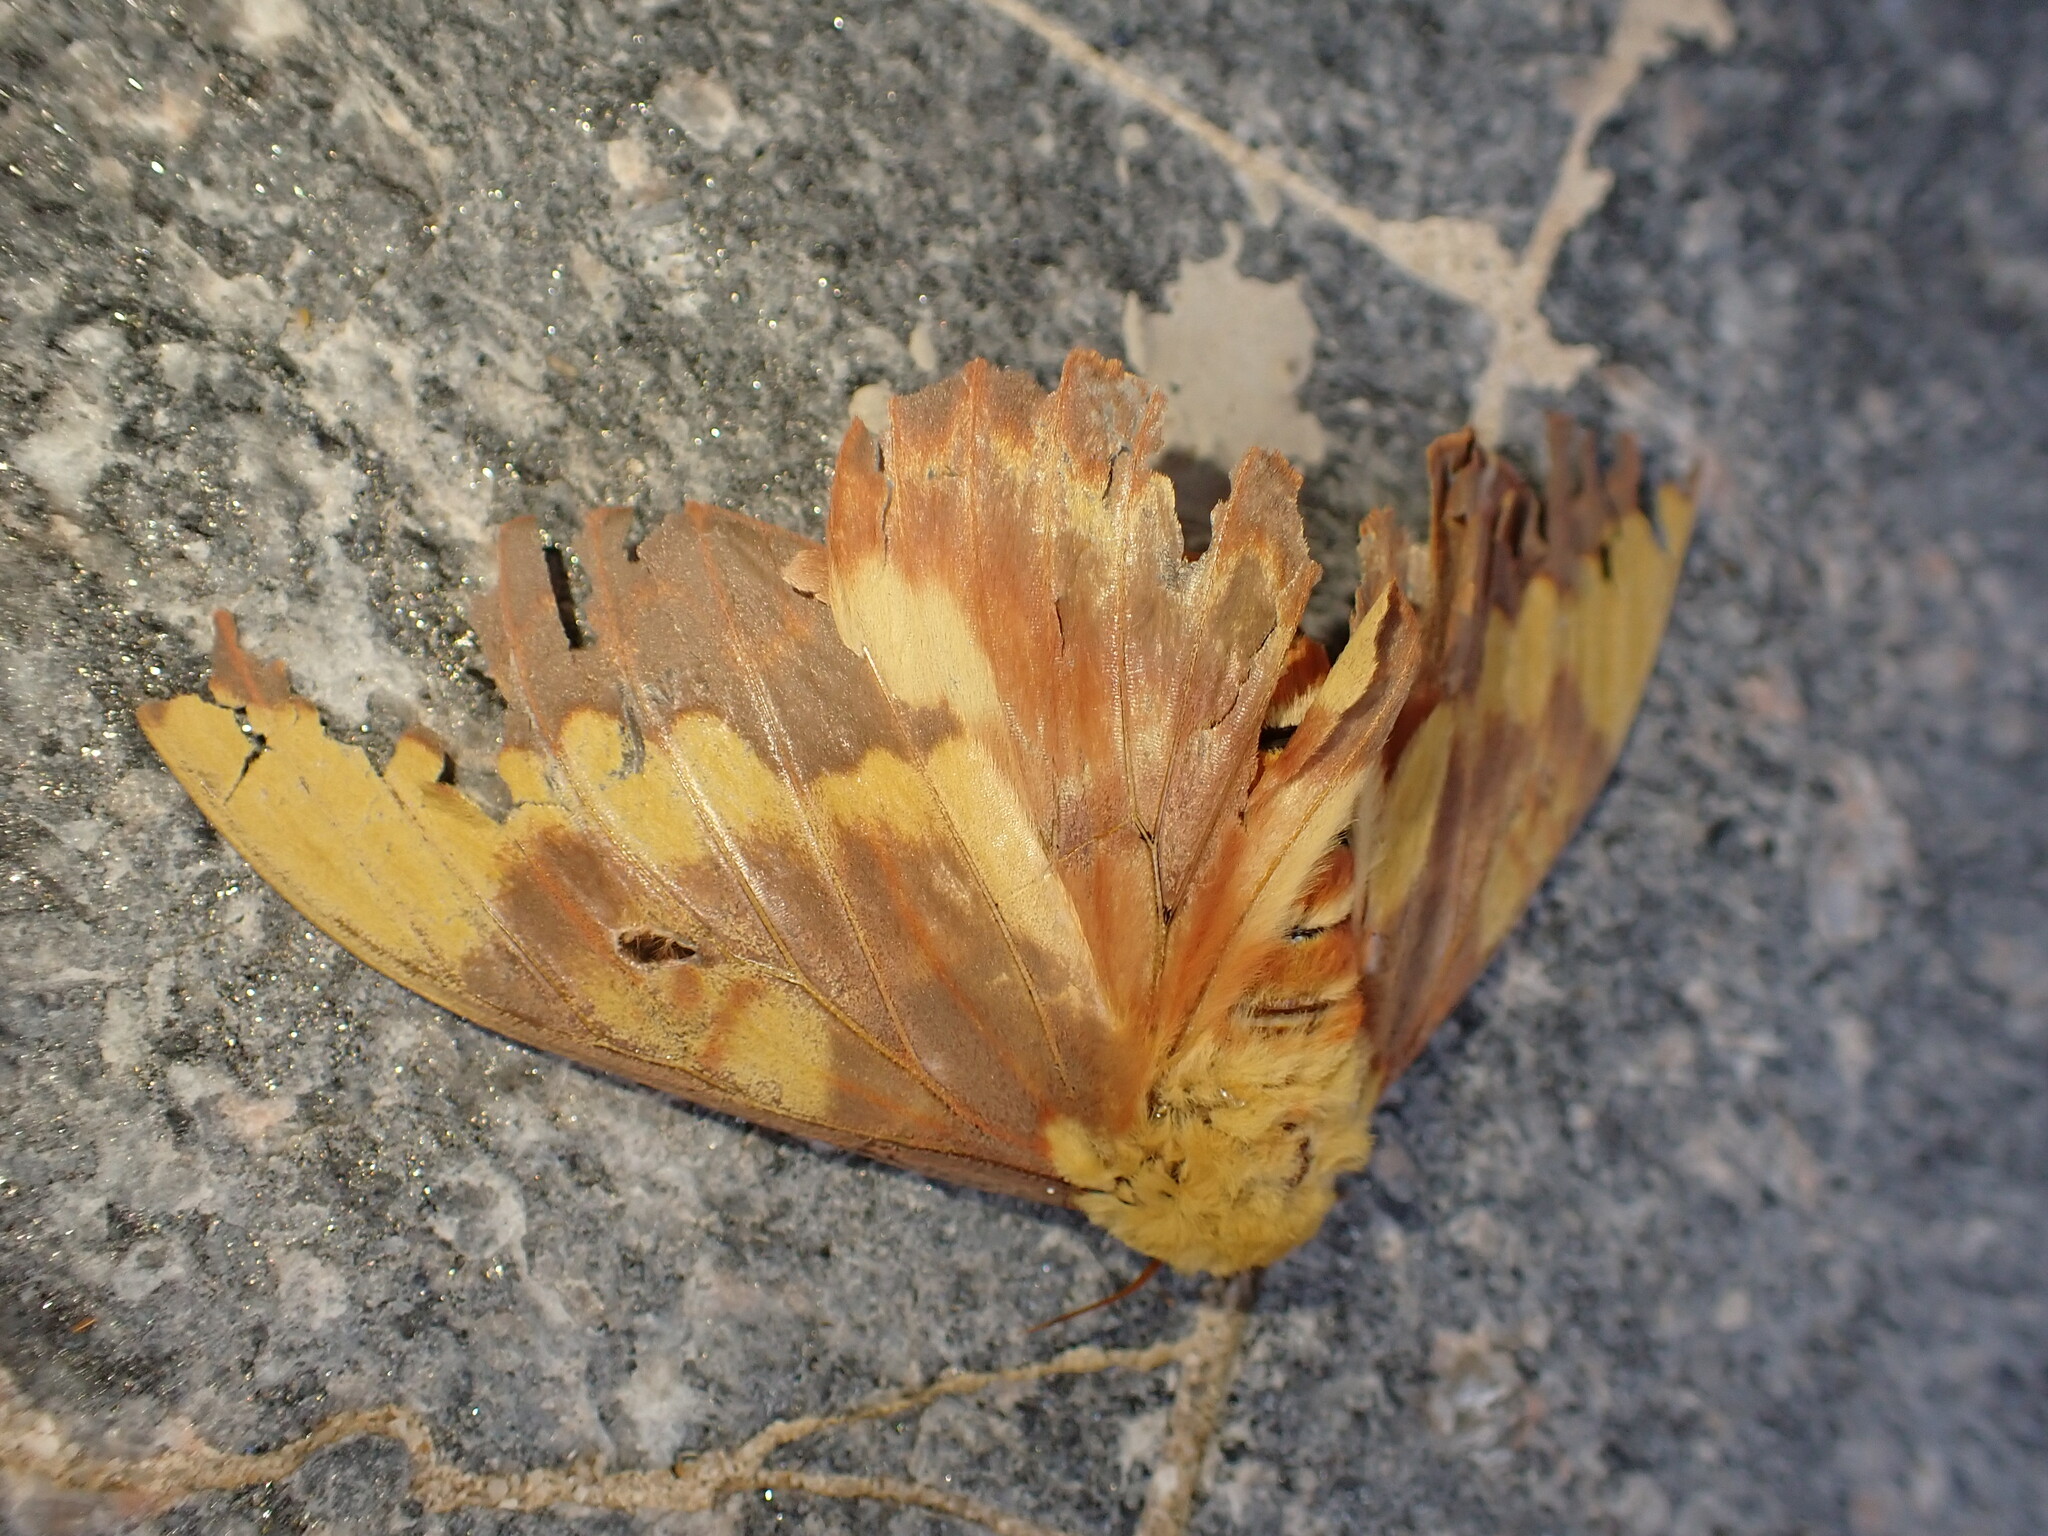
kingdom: Animalia
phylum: Arthropoda
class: Insecta
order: Lepidoptera
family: Saturniidae
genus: Citheronia
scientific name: Citheronia laocoon
